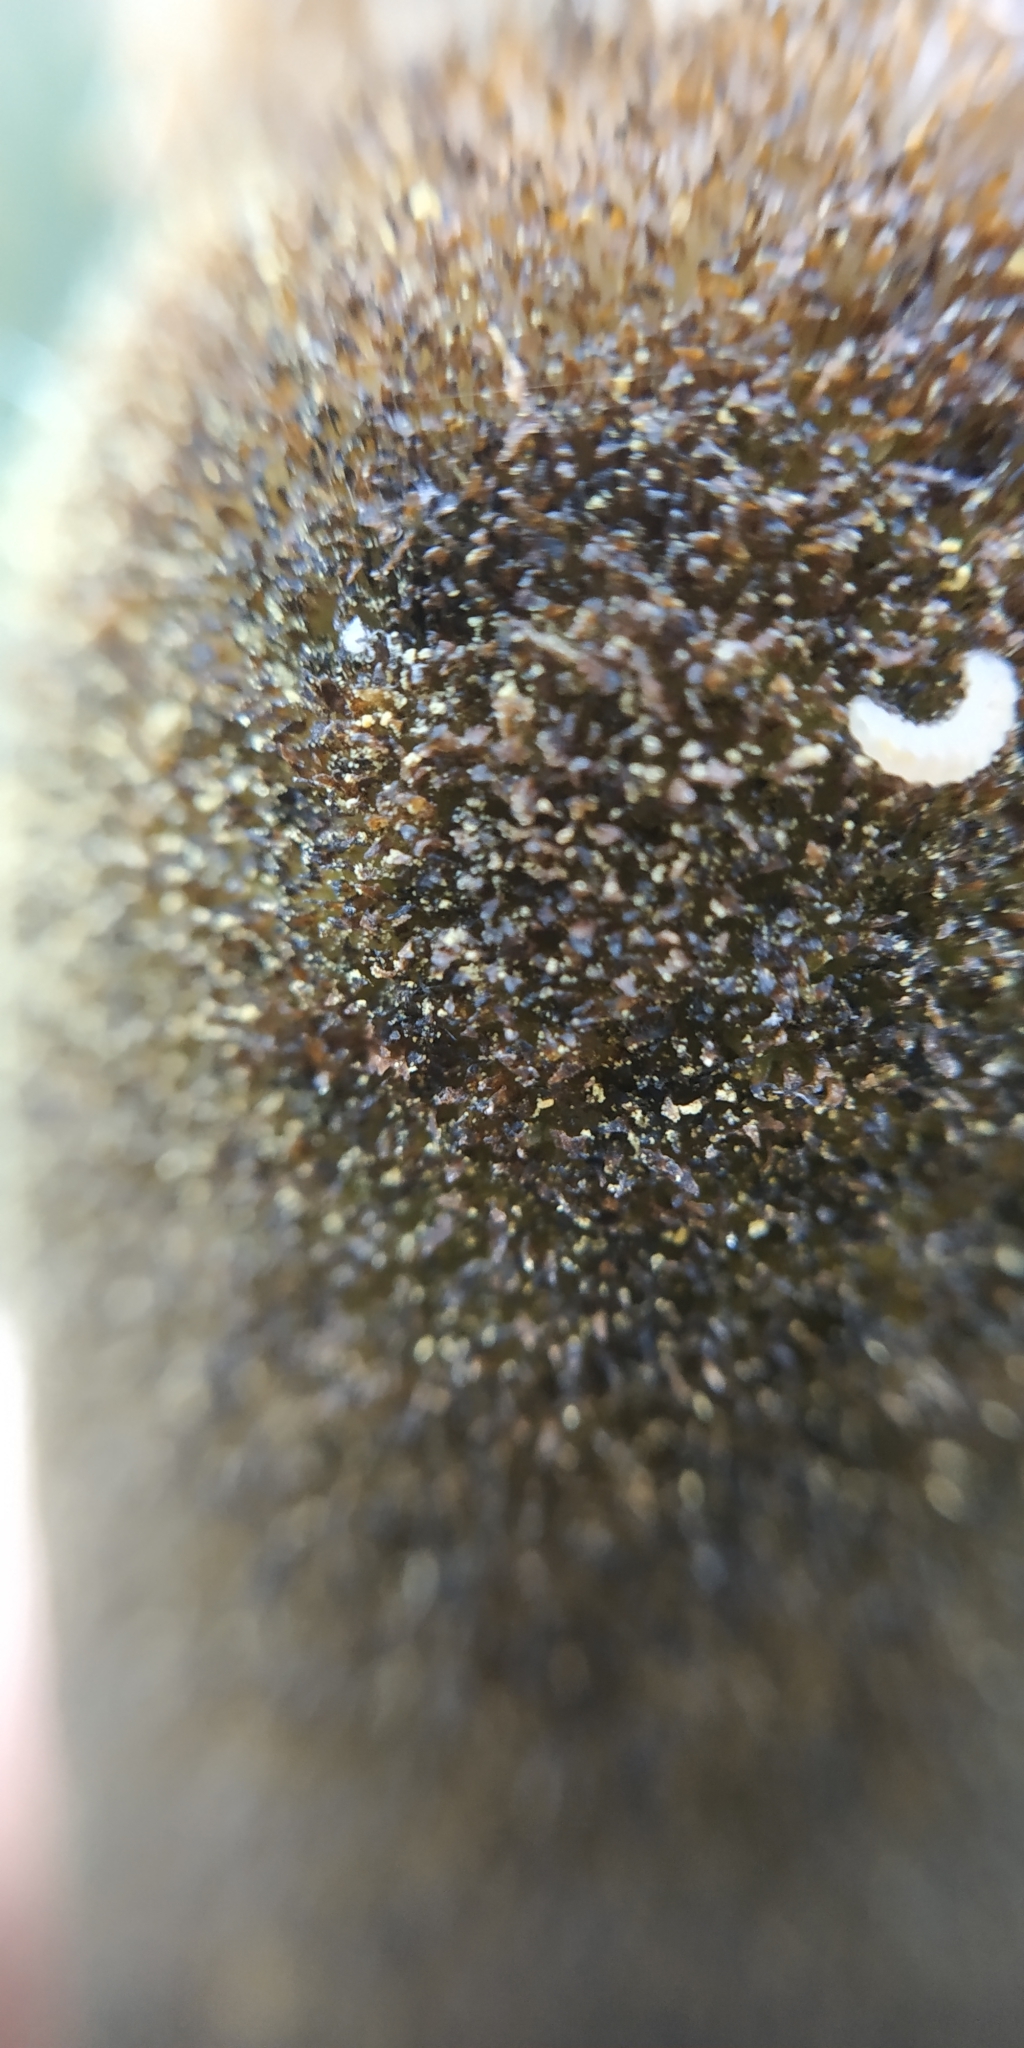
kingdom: Plantae
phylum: Tracheophyta
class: Liliopsida
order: Poales
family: Typhaceae
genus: Typha
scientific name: Typha latifolia
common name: Broadleaf cattail
